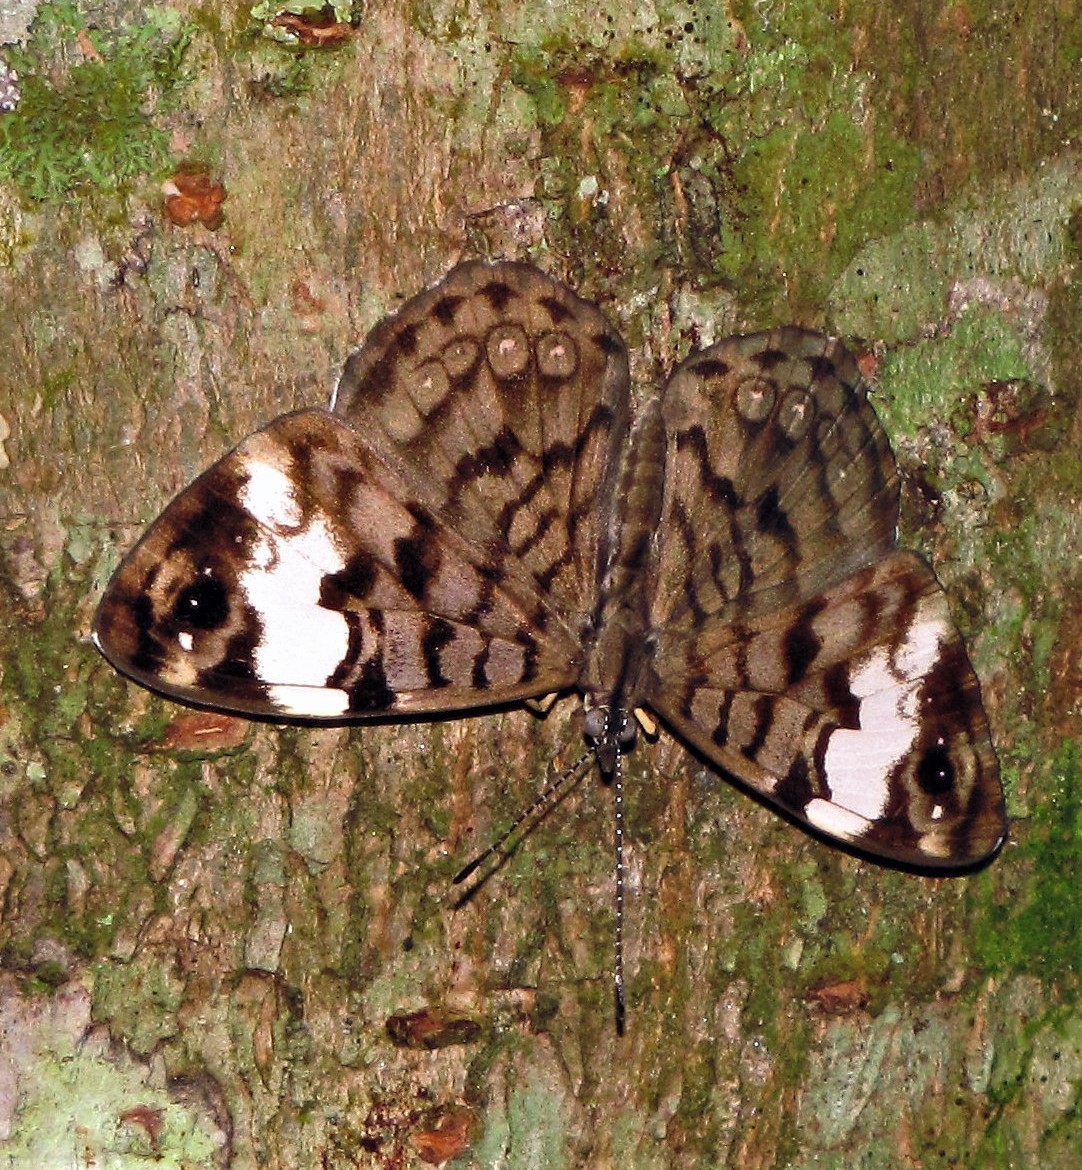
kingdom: Animalia
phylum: Arthropoda
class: Insecta
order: Lepidoptera
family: Nymphalidae
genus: Ectima
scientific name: Ectima thecla
